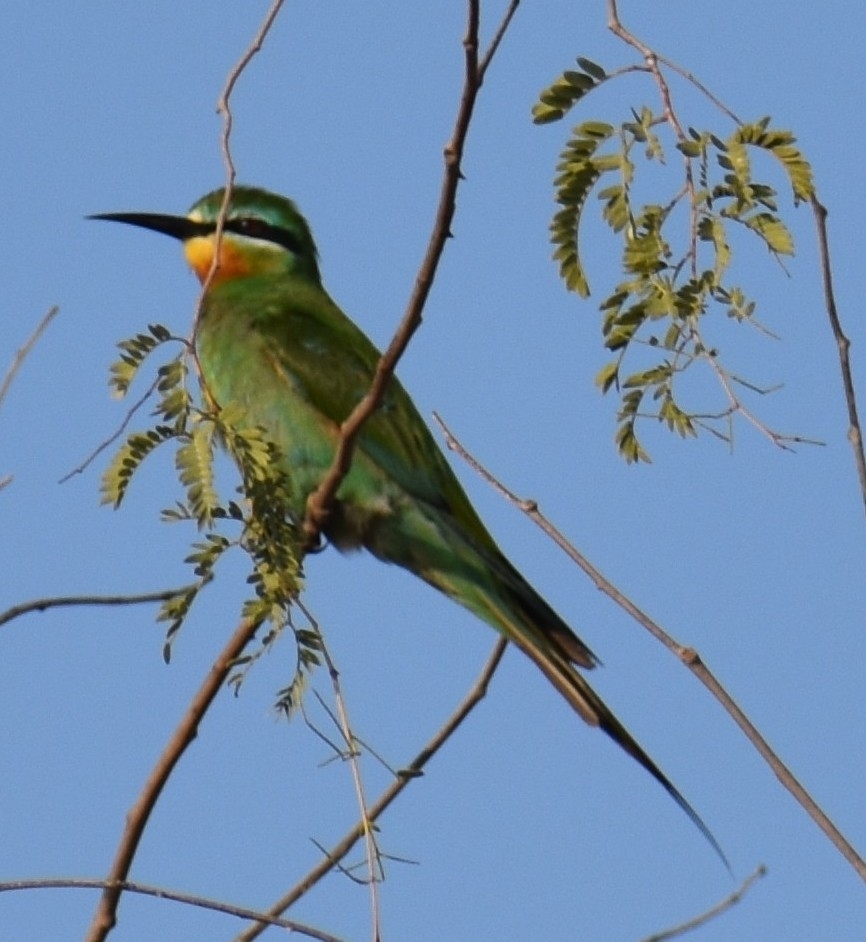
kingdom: Animalia
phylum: Chordata
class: Aves
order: Coraciiformes
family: Meropidae
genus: Merops
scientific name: Merops persicus
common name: Blue-cheeked bee-eater
